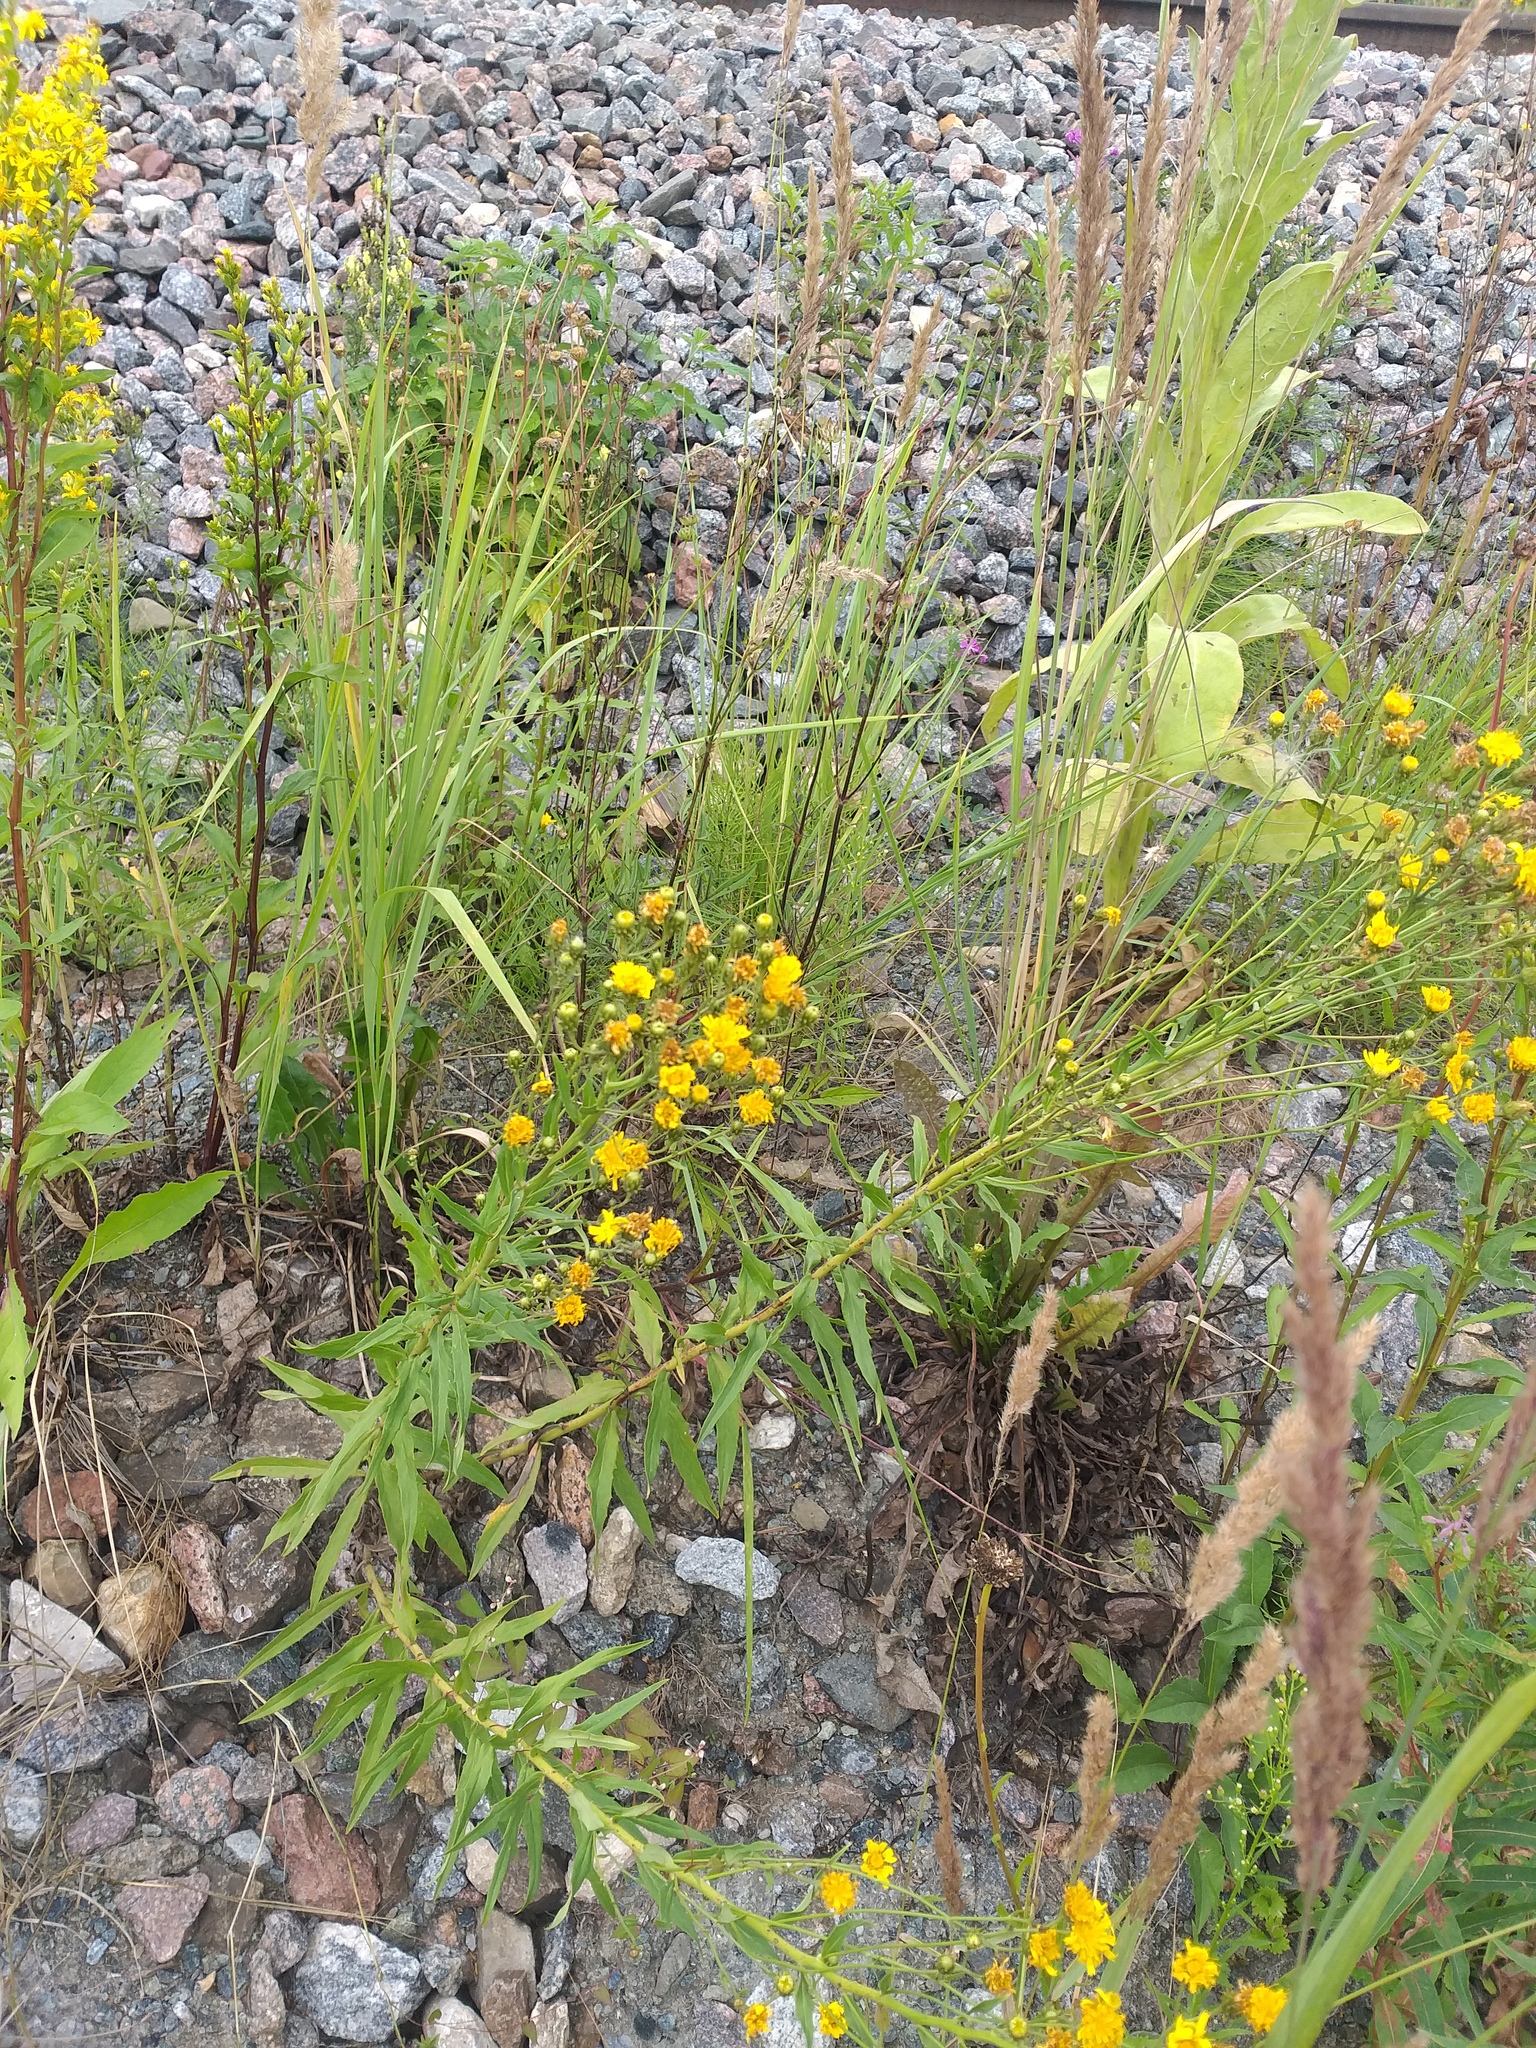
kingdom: Plantae
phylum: Tracheophyta
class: Magnoliopsida
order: Asterales
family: Asteraceae
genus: Hieracium
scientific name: Hieracium umbellatum
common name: Northern hawkweed
